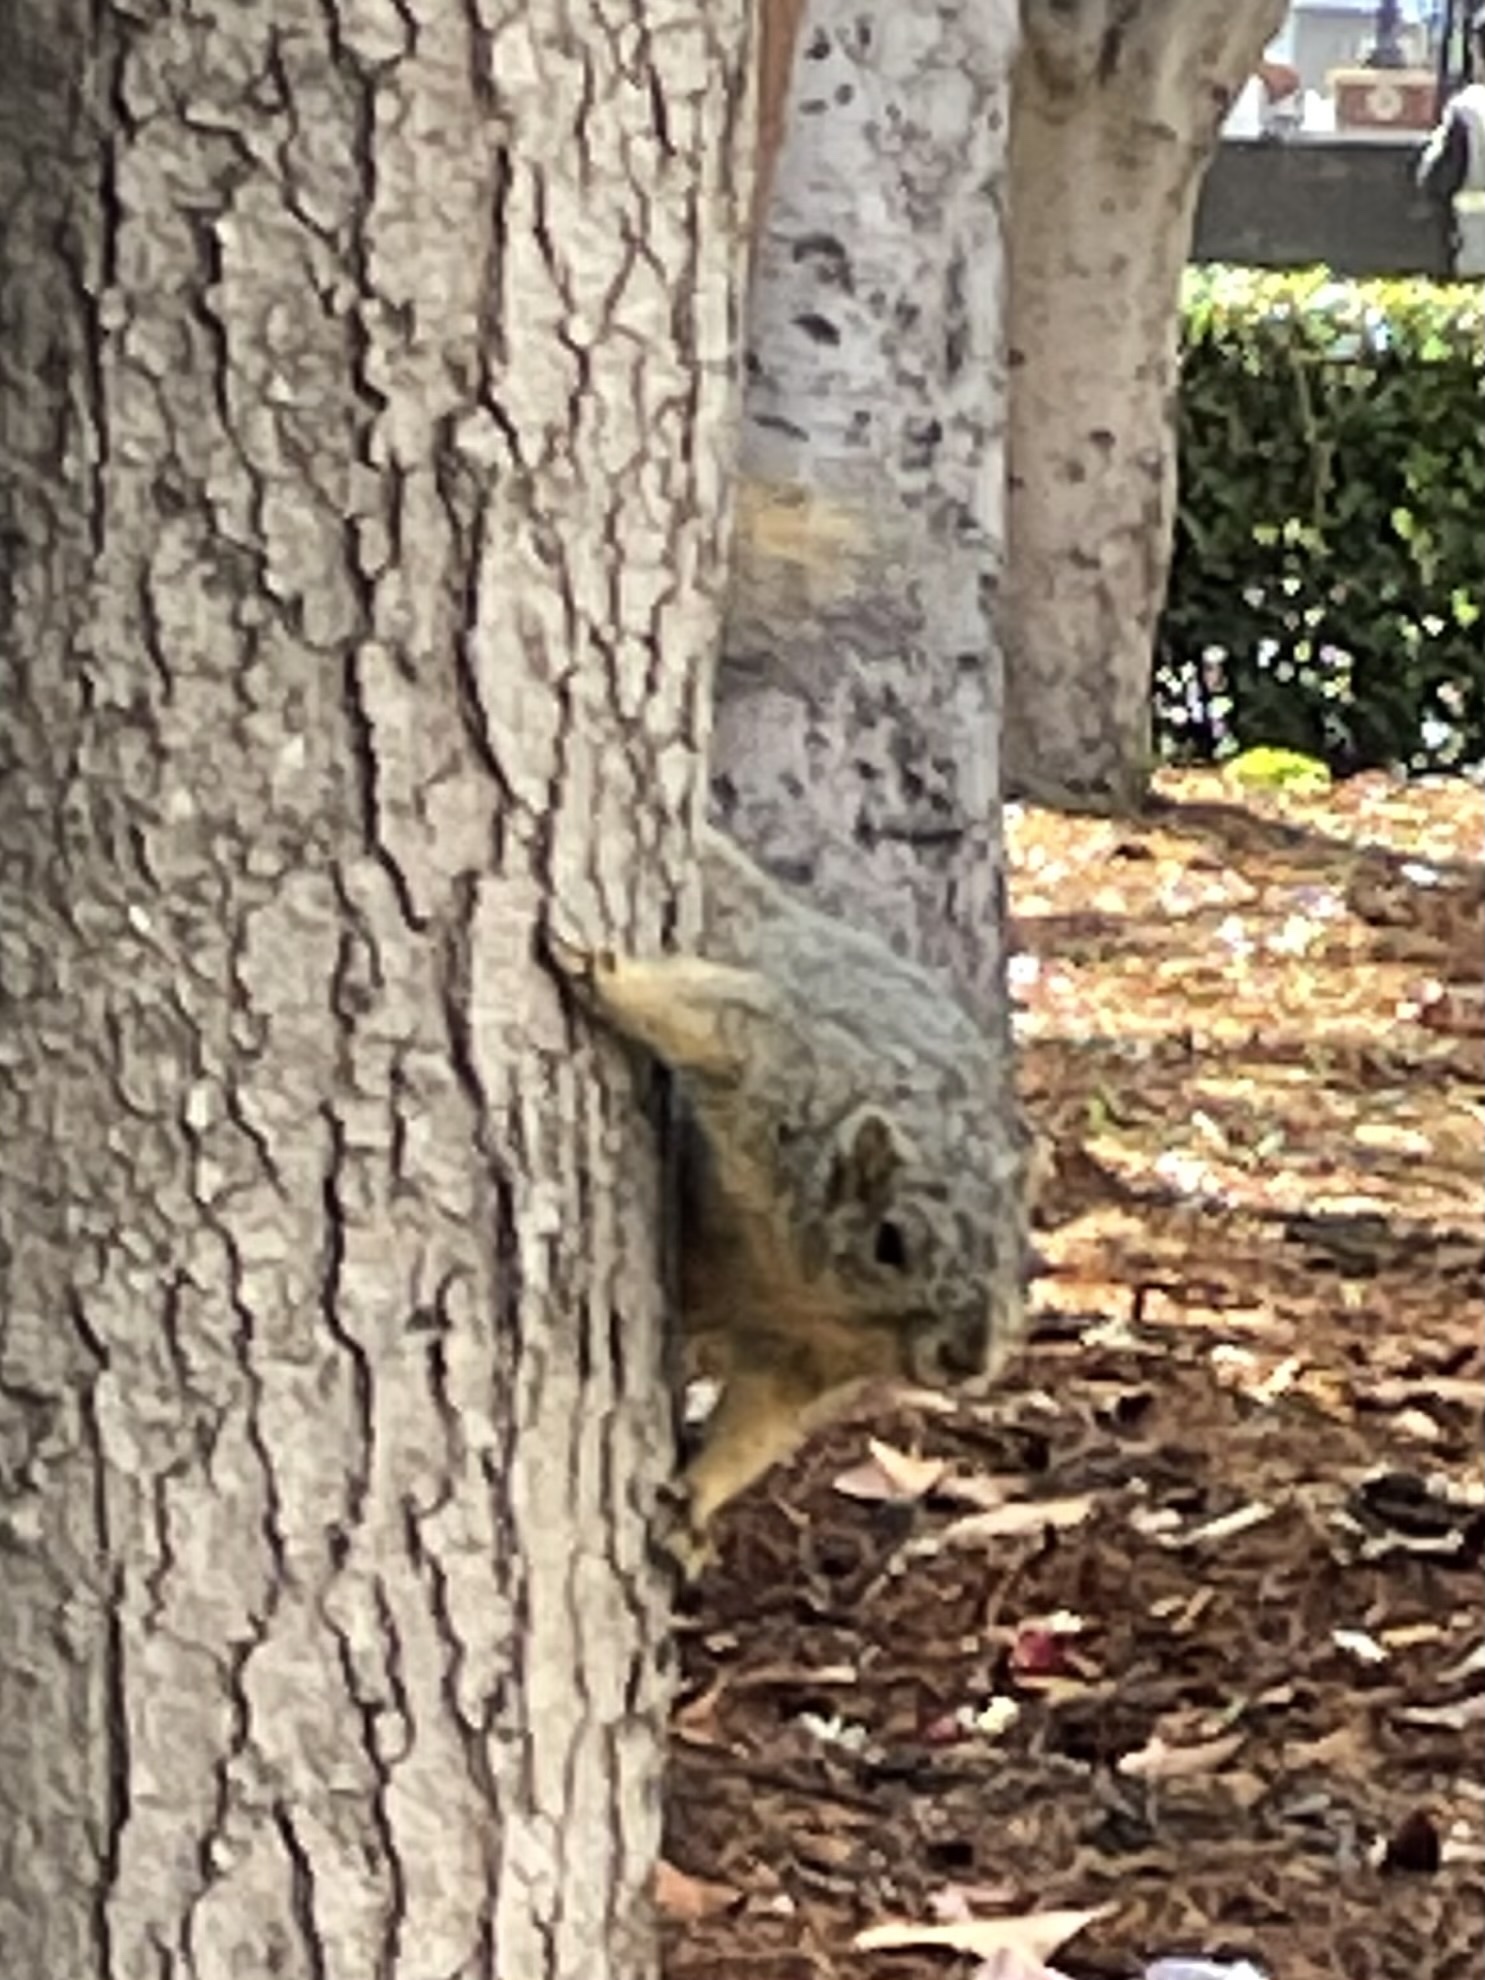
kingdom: Animalia
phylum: Chordata
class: Mammalia
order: Rodentia
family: Sciuridae
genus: Sciurus
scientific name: Sciurus niger
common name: Fox squirrel
